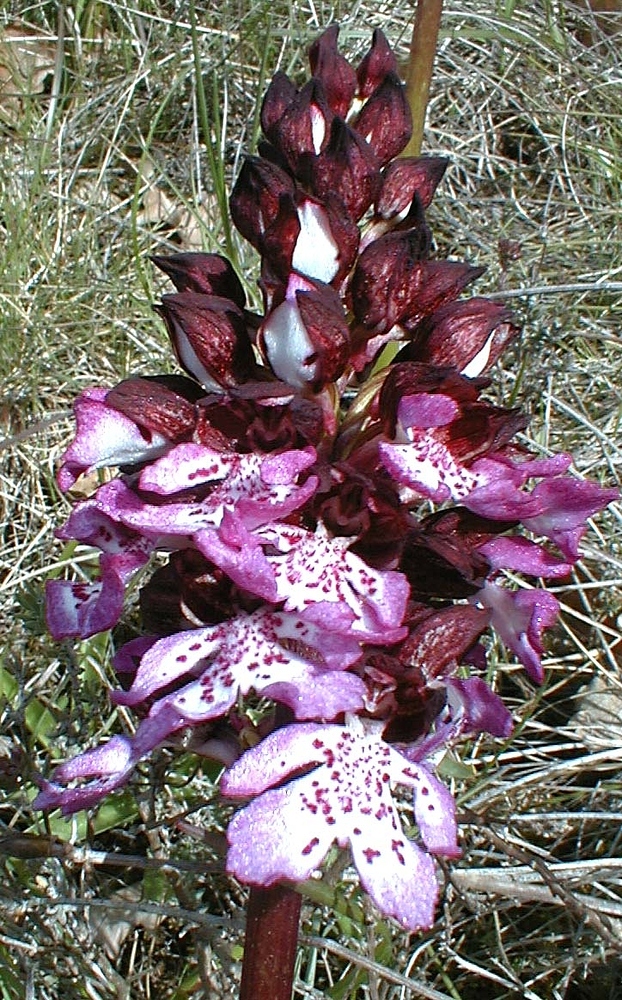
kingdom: Plantae
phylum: Tracheophyta
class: Liliopsida
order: Asparagales
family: Orchidaceae
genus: Orchis
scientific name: Orchis purpurea
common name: Lady orchid
